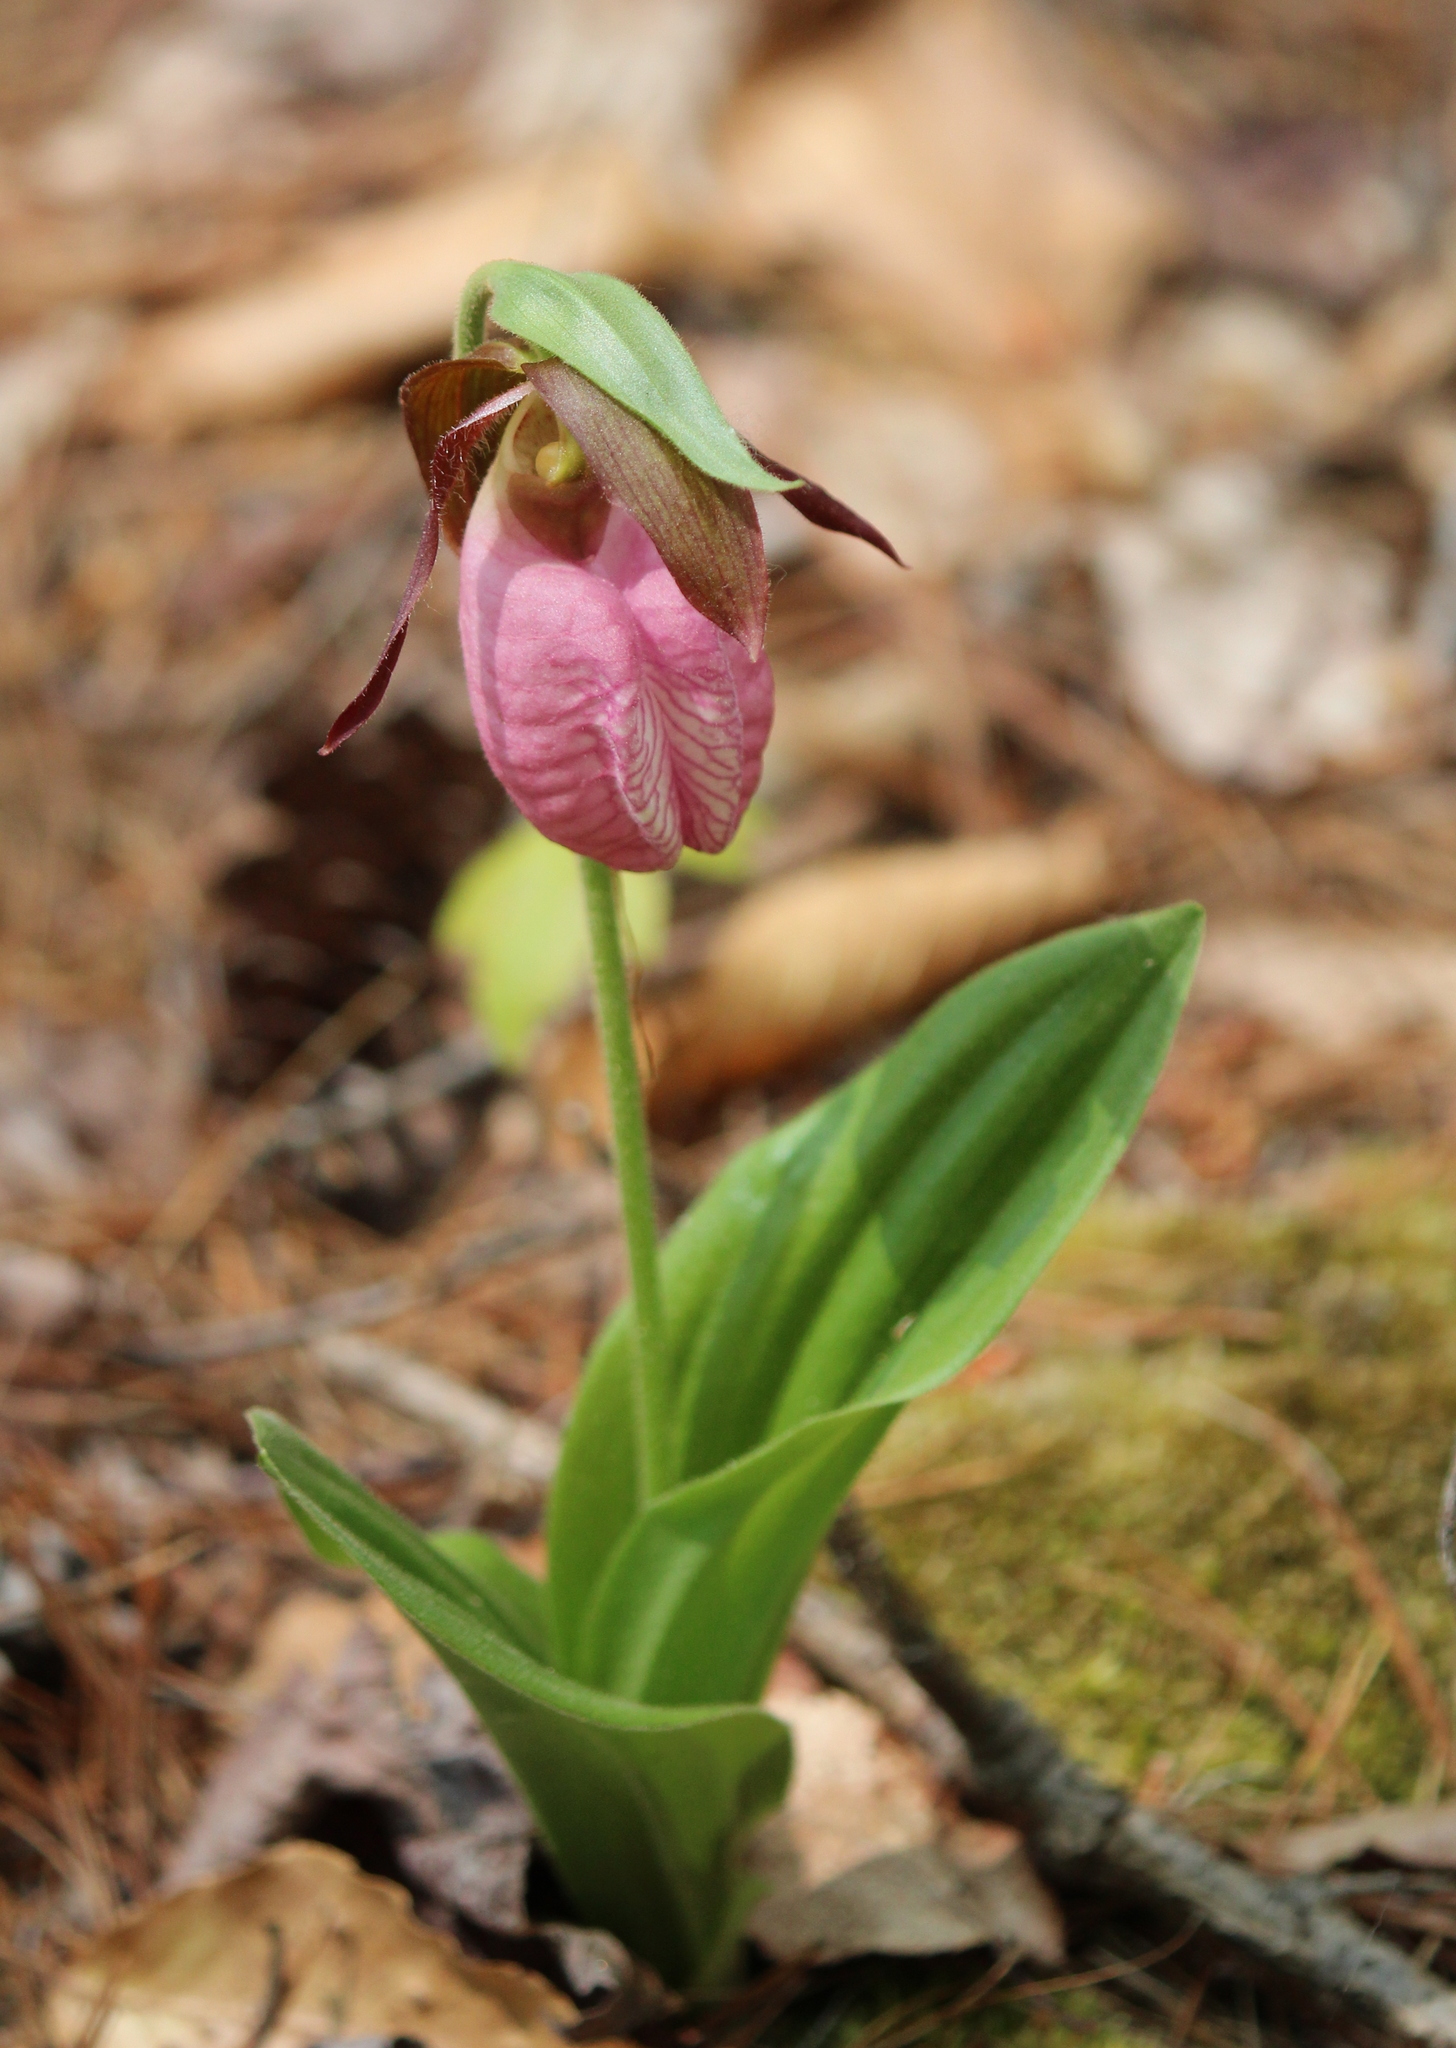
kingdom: Plantae
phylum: Tracheophyta
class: Liliopsida
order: Asparagales
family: Orchidaceae
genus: Cypripedium
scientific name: Cypripedium acaule
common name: Pink lady's-slipper
